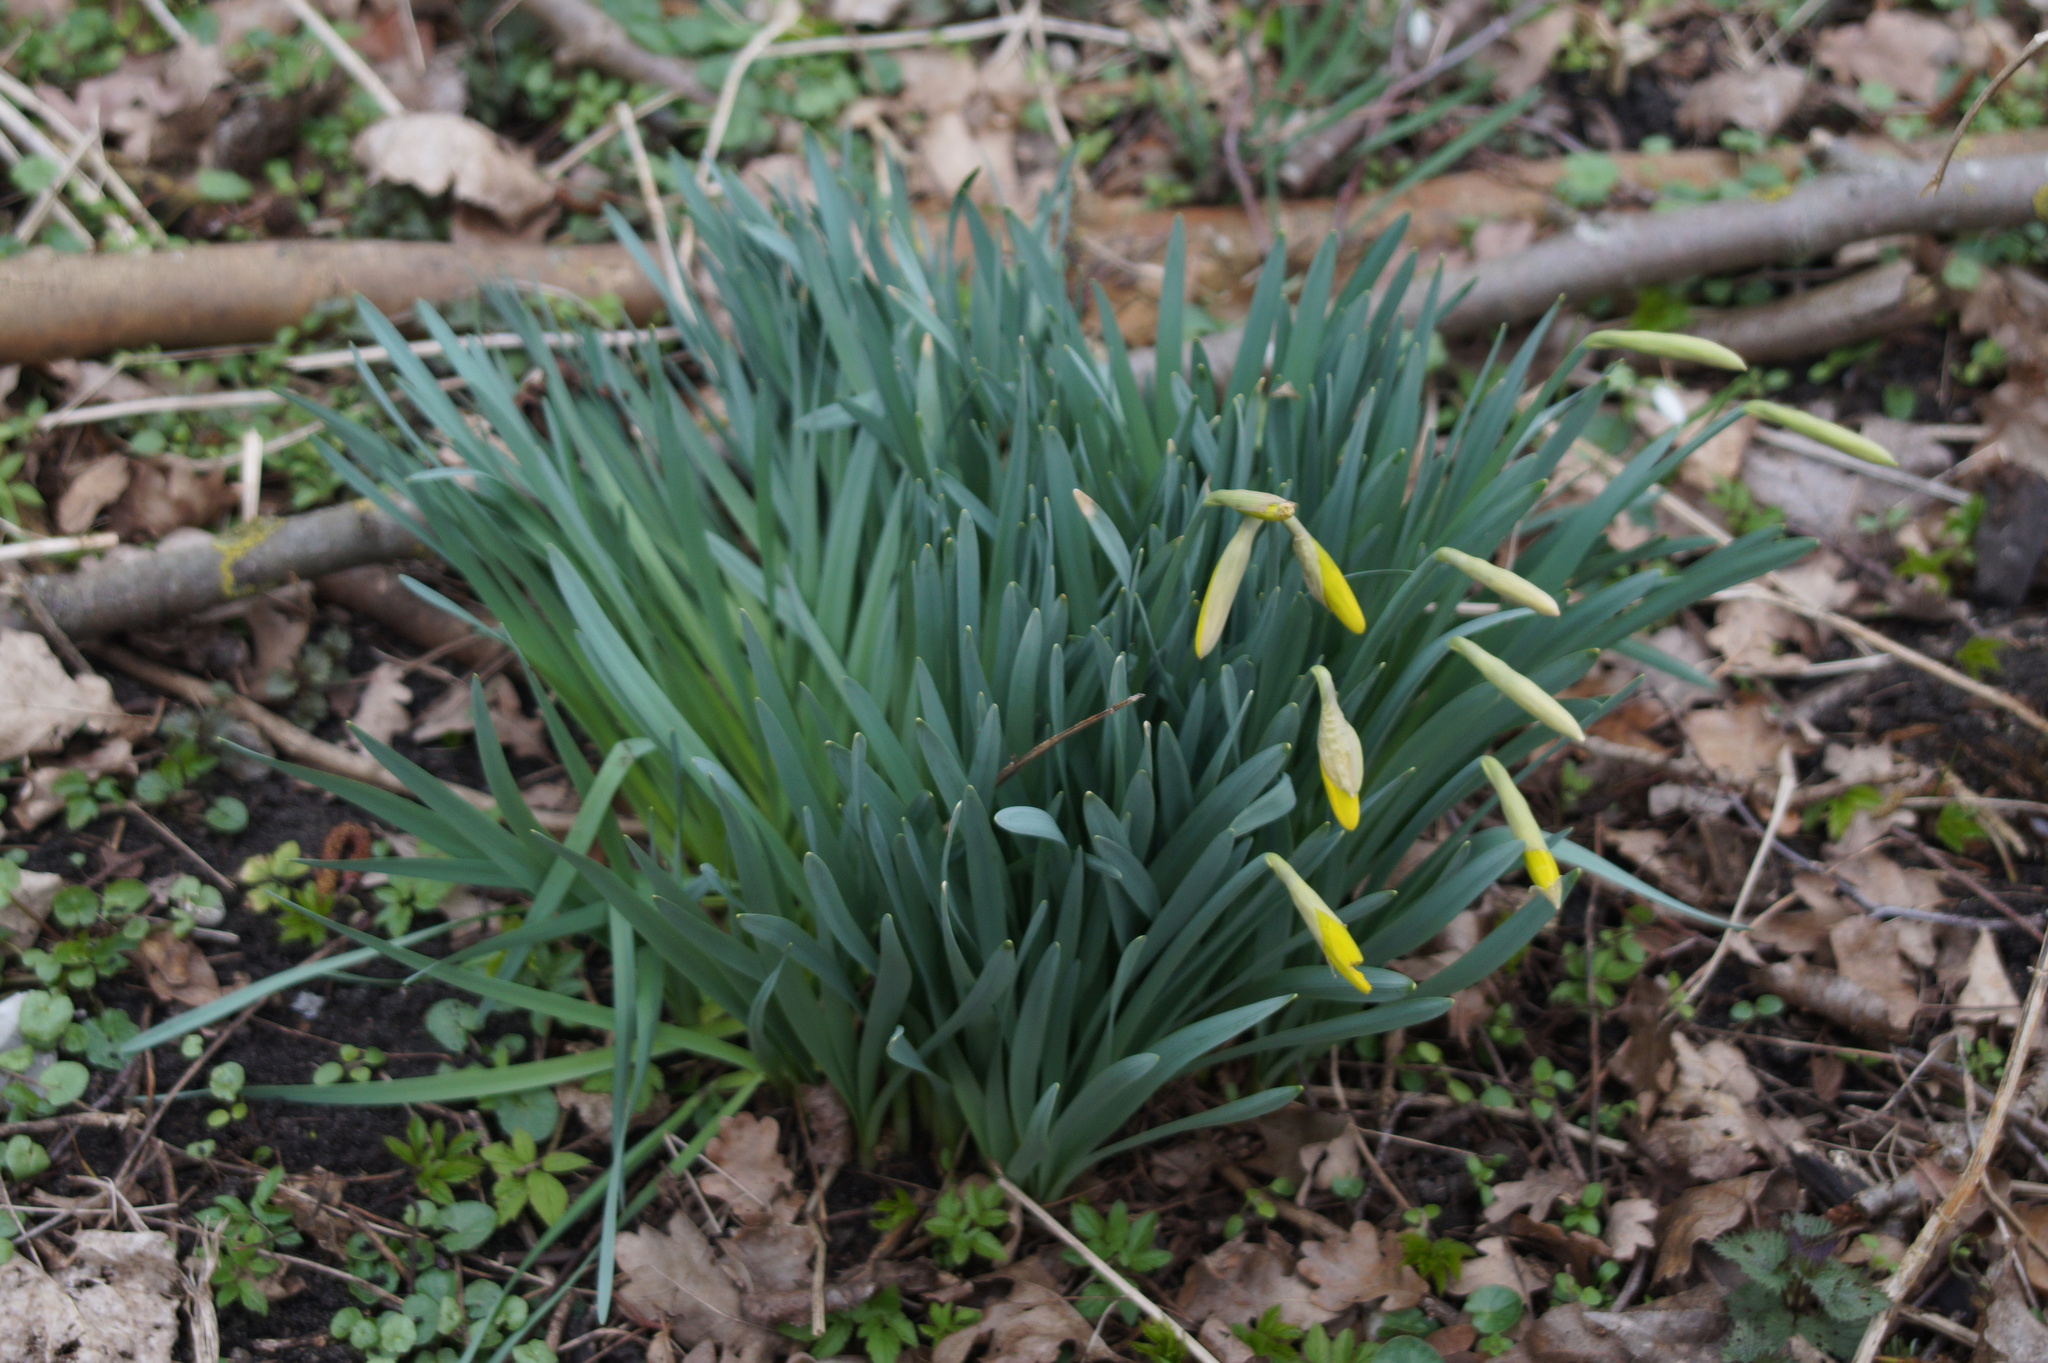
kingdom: Plantae
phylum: Tracheophyta
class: Liliopsida
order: Asparagales
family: Amaryllidaceae
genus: Narcissus
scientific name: Narcissus pseudonarcissus
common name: Daffodil
